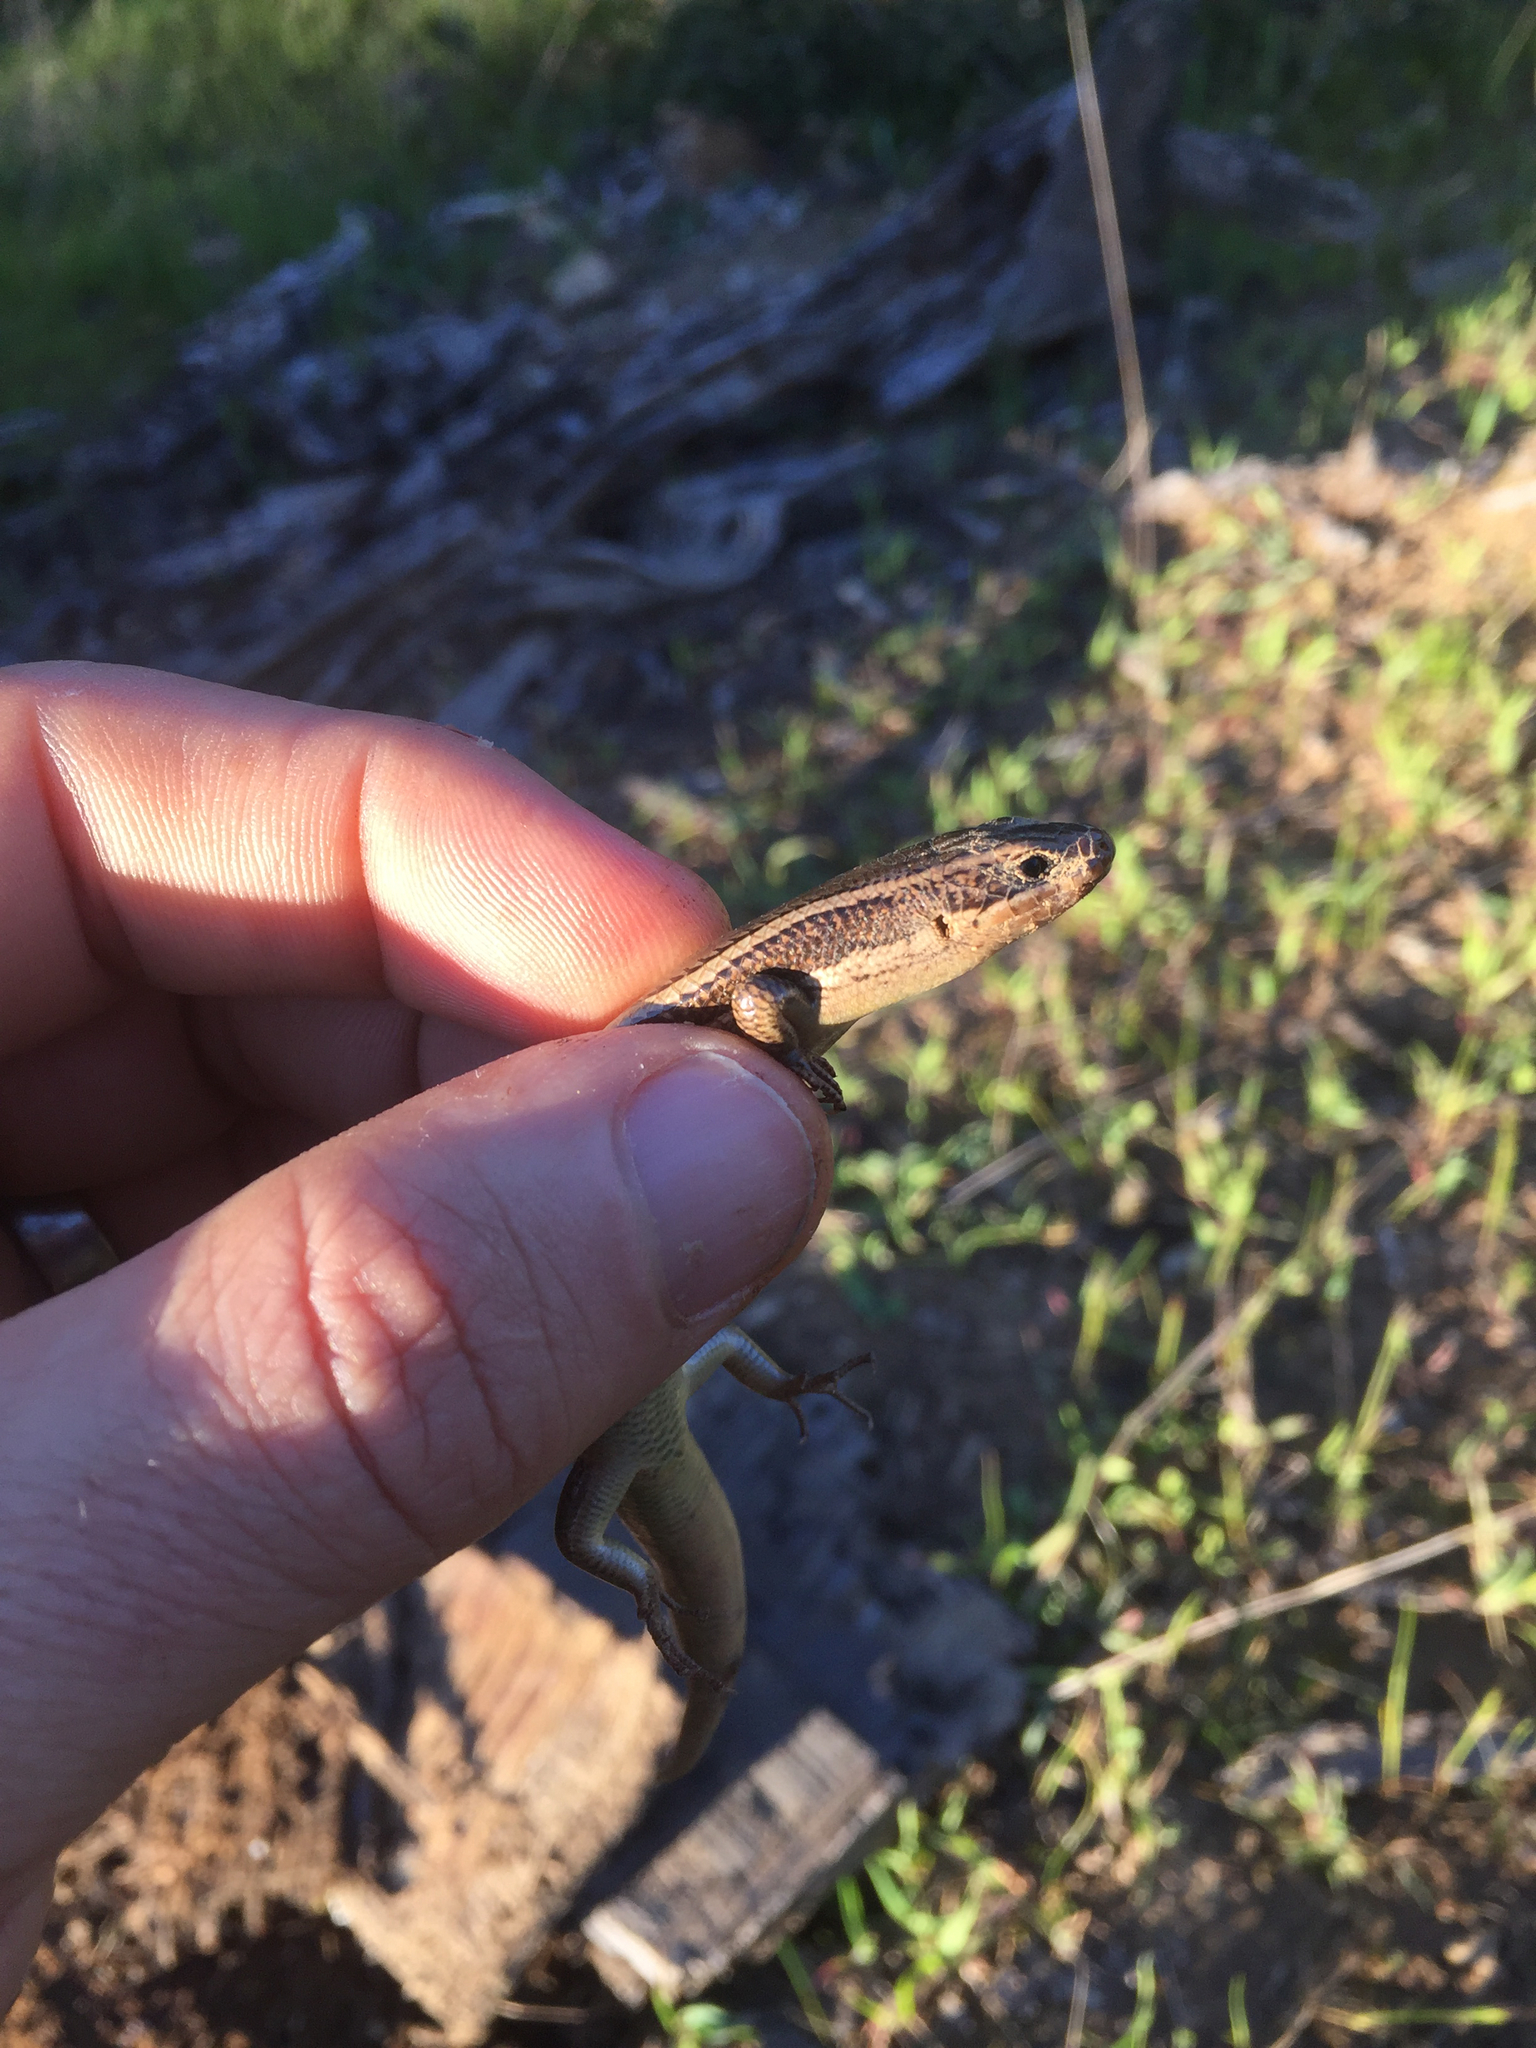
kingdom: Animalia
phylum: Chordata
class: Squamata
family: Scincidae
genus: Plestiodon
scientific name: Plestiodon skiltonianus
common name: Coronado island skink [interparietalis]
